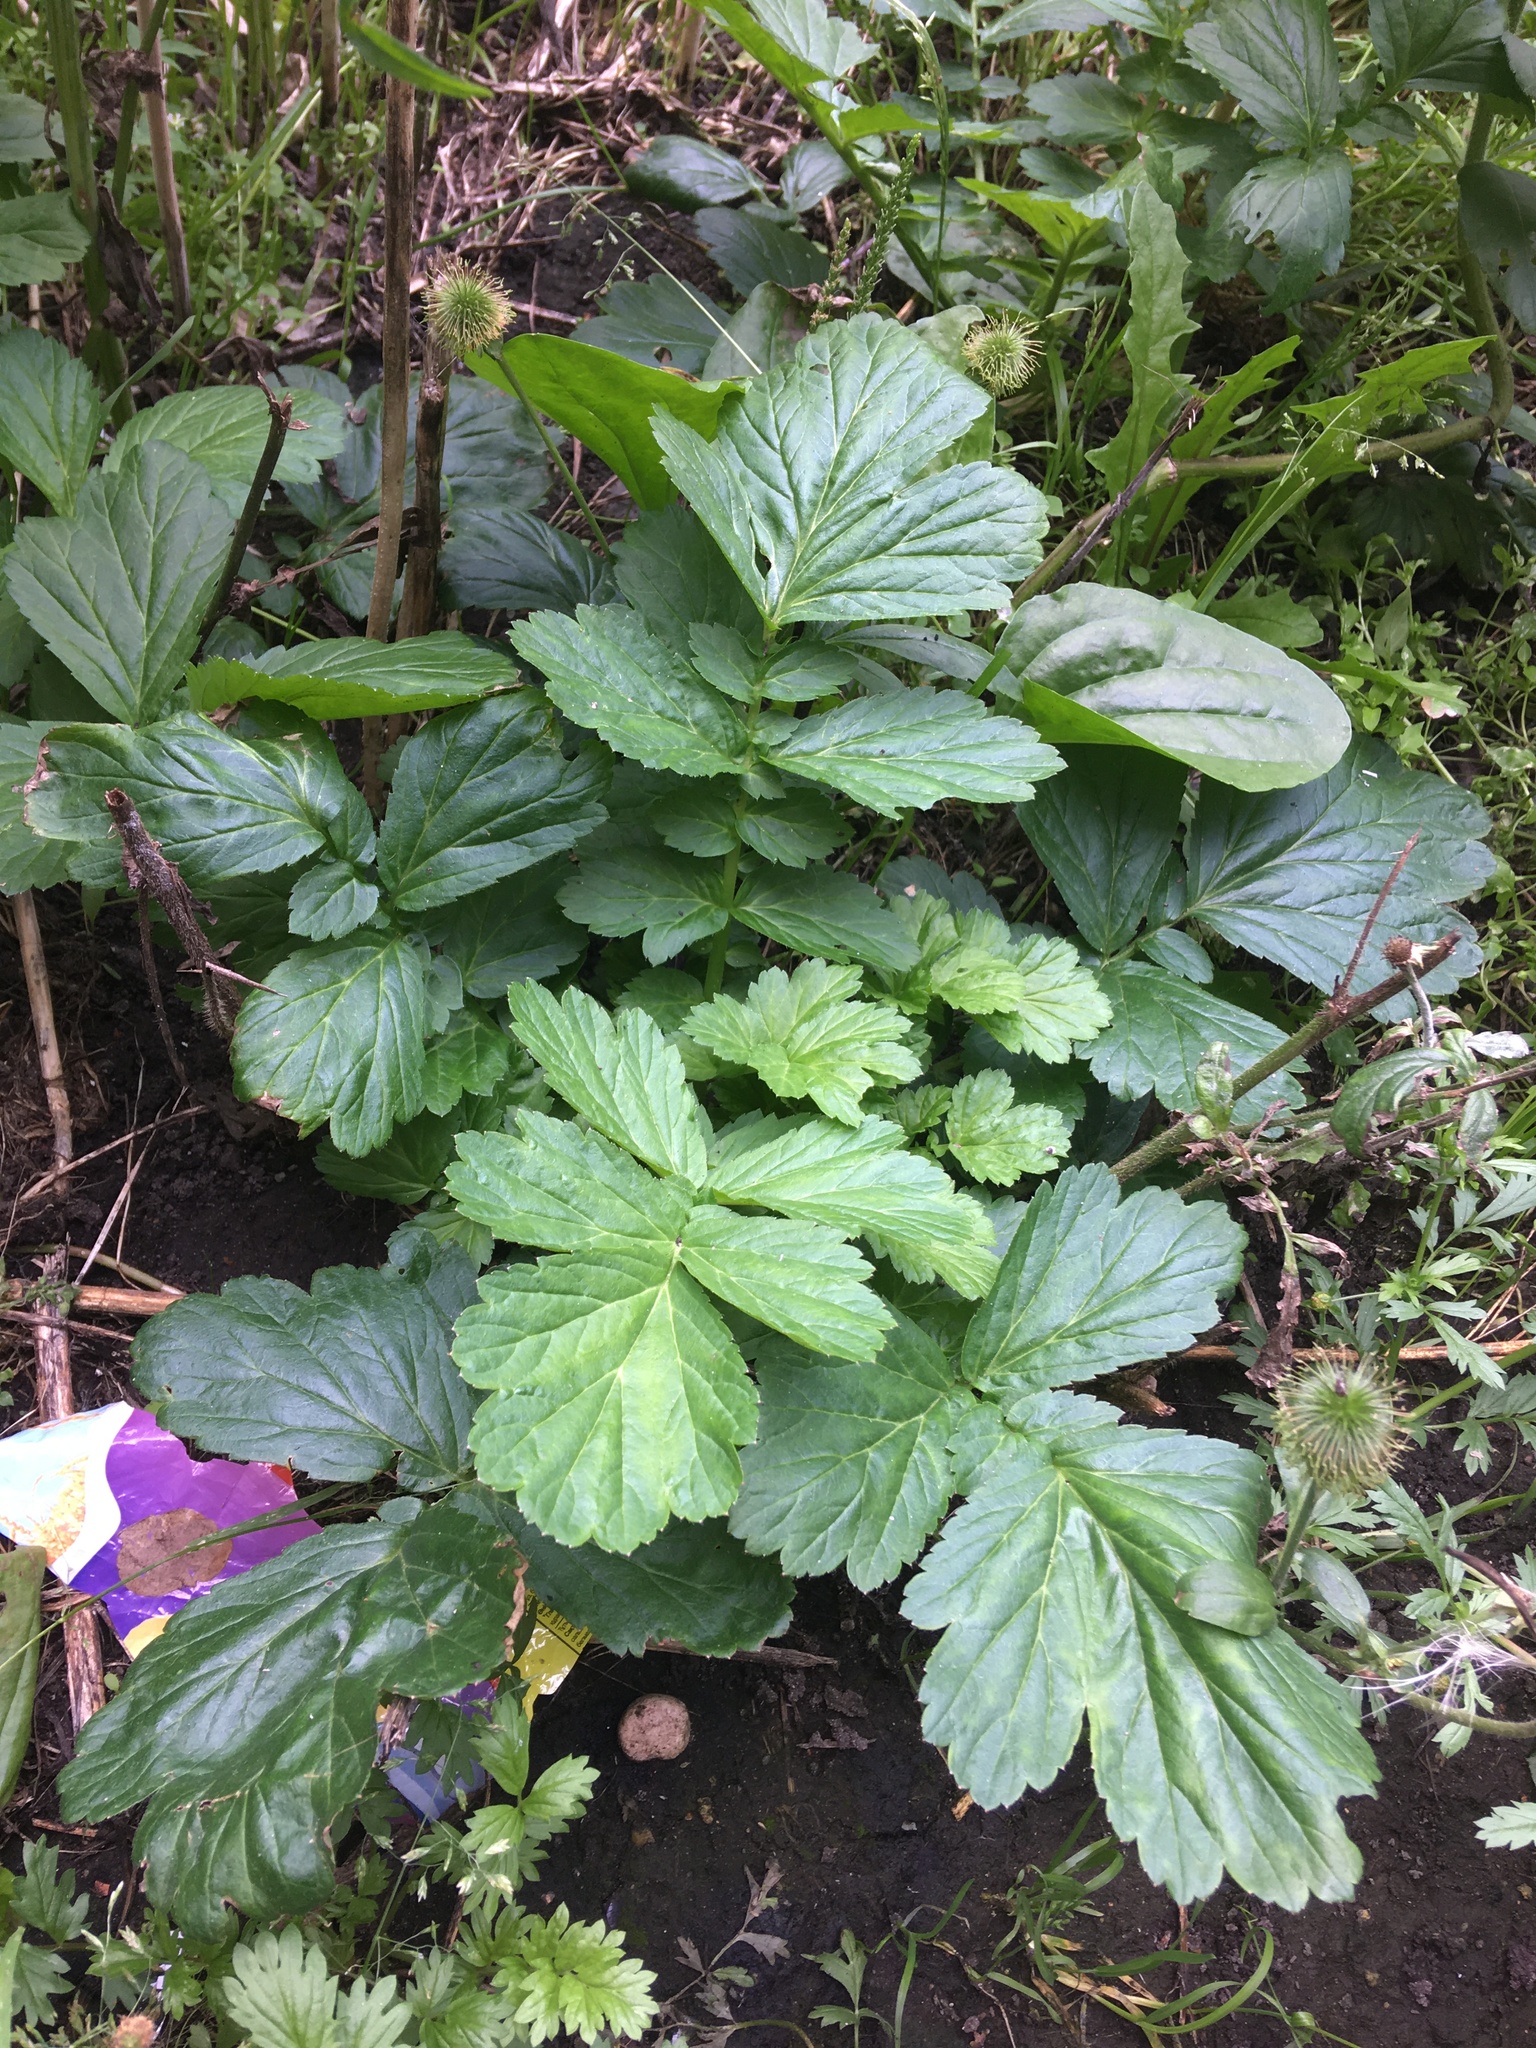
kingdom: Plantae
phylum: Tracheophyta
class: Magnoliopsida
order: Rosales
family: Rosaceae
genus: Geum
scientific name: Geum aleppicum
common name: Yellow avens
